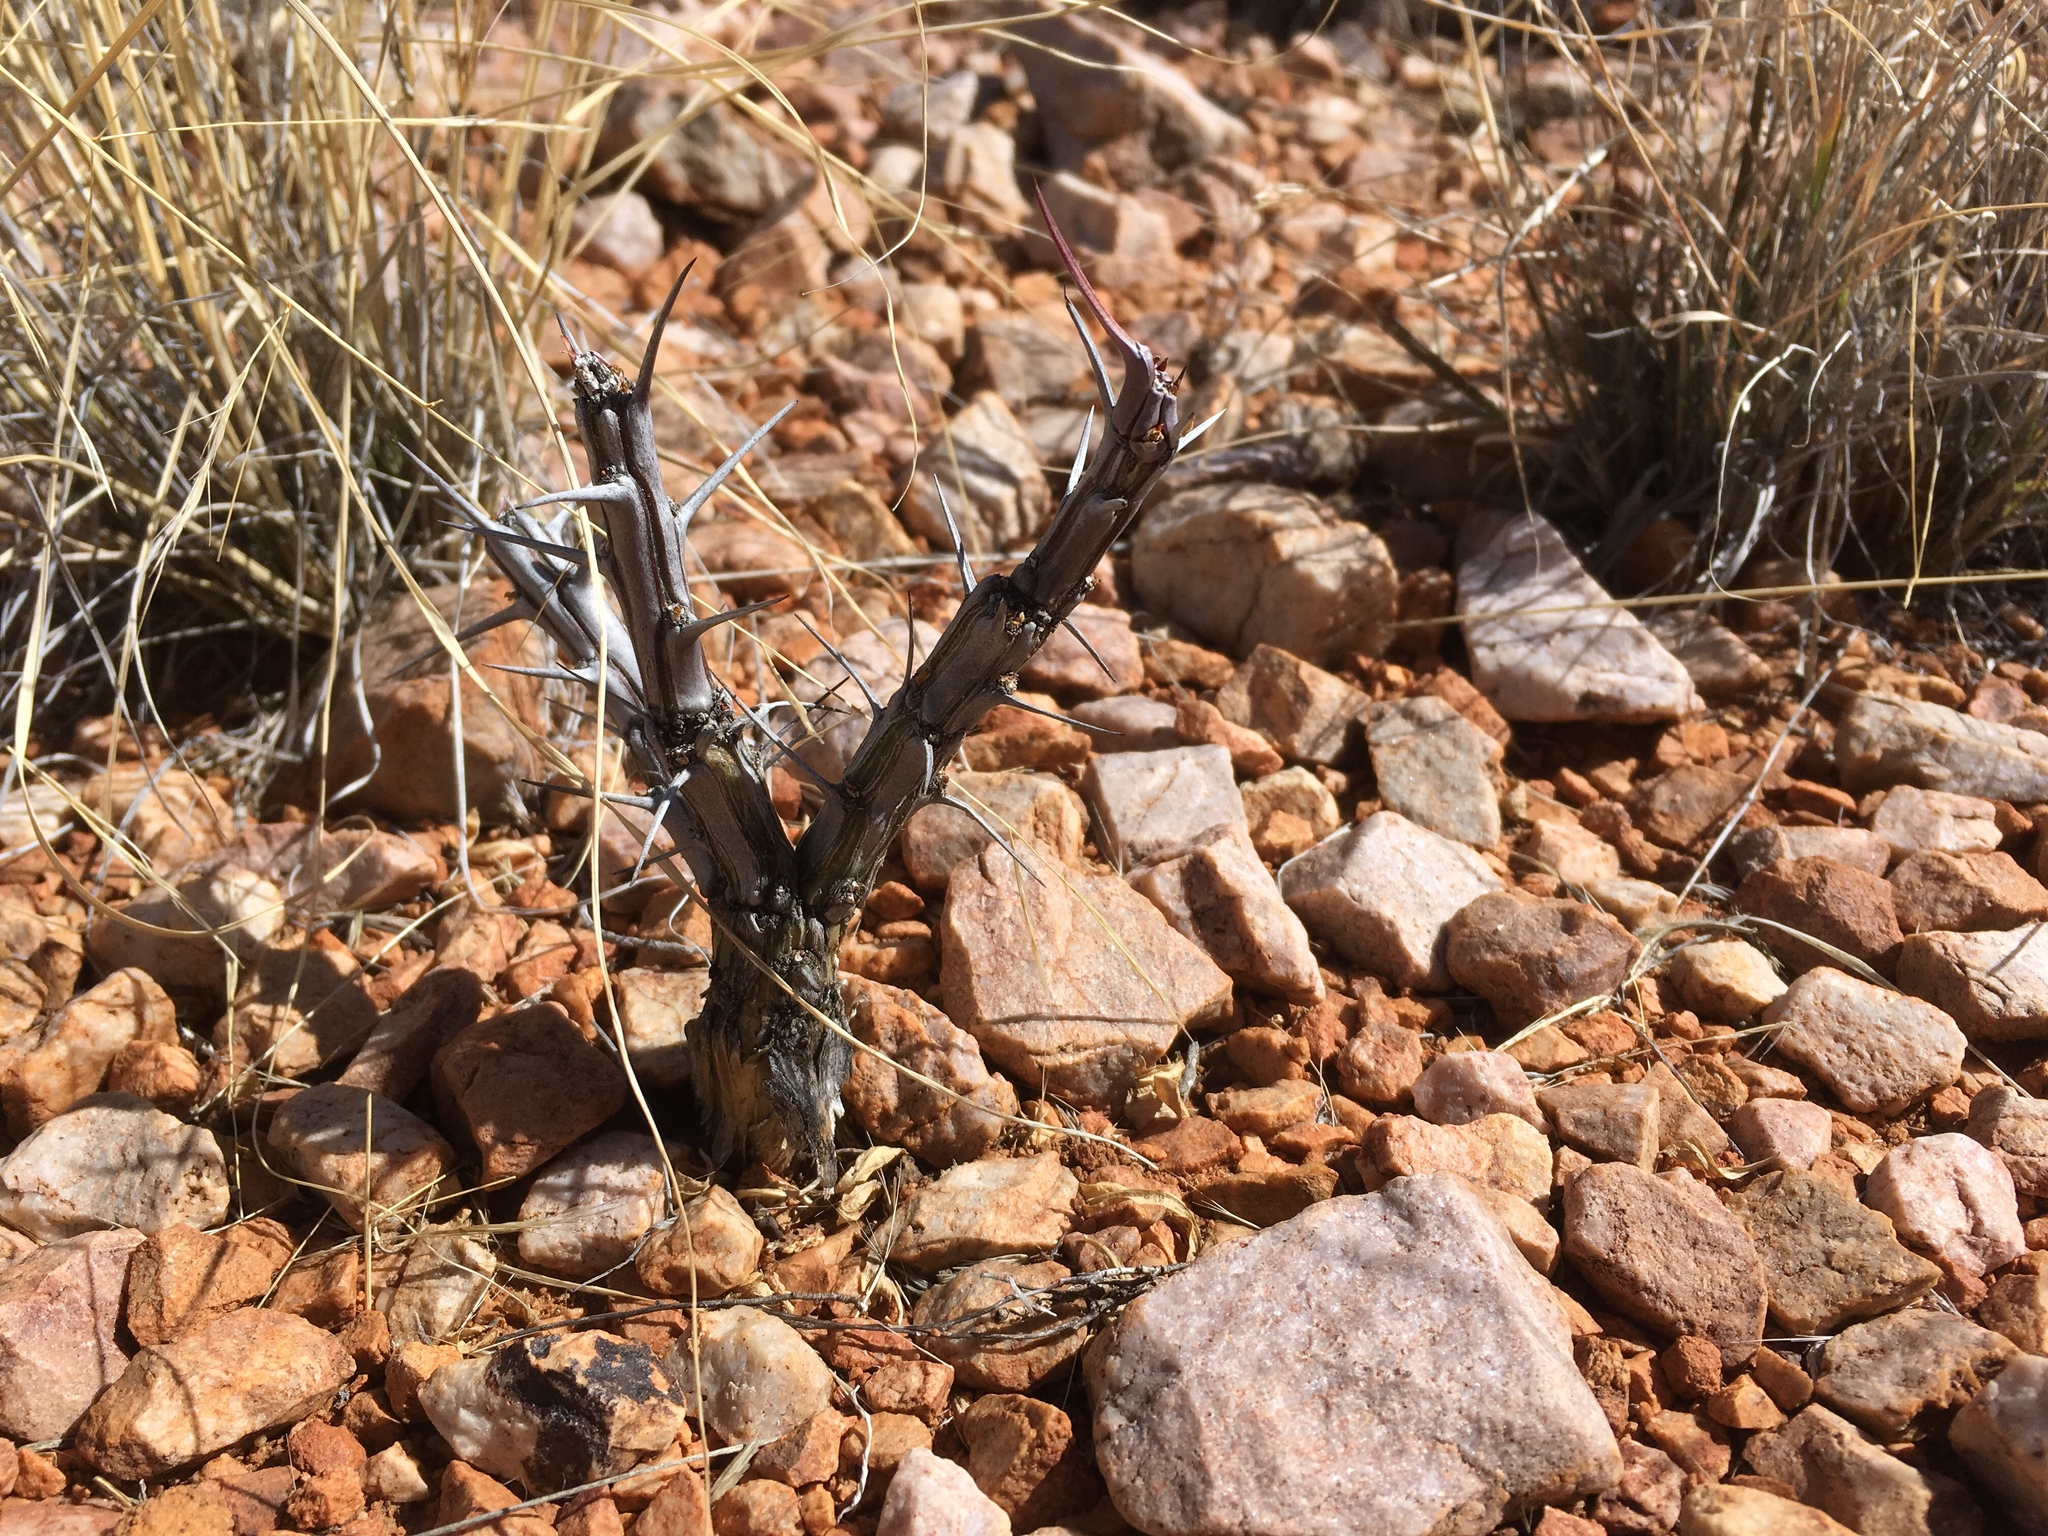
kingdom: Plantae
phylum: Tracheophyta
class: Magnoliopsida
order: Ericales
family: Fouquieriaceae
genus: Fouquieria
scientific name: Fouquieria splendens
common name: Vine-cactus
